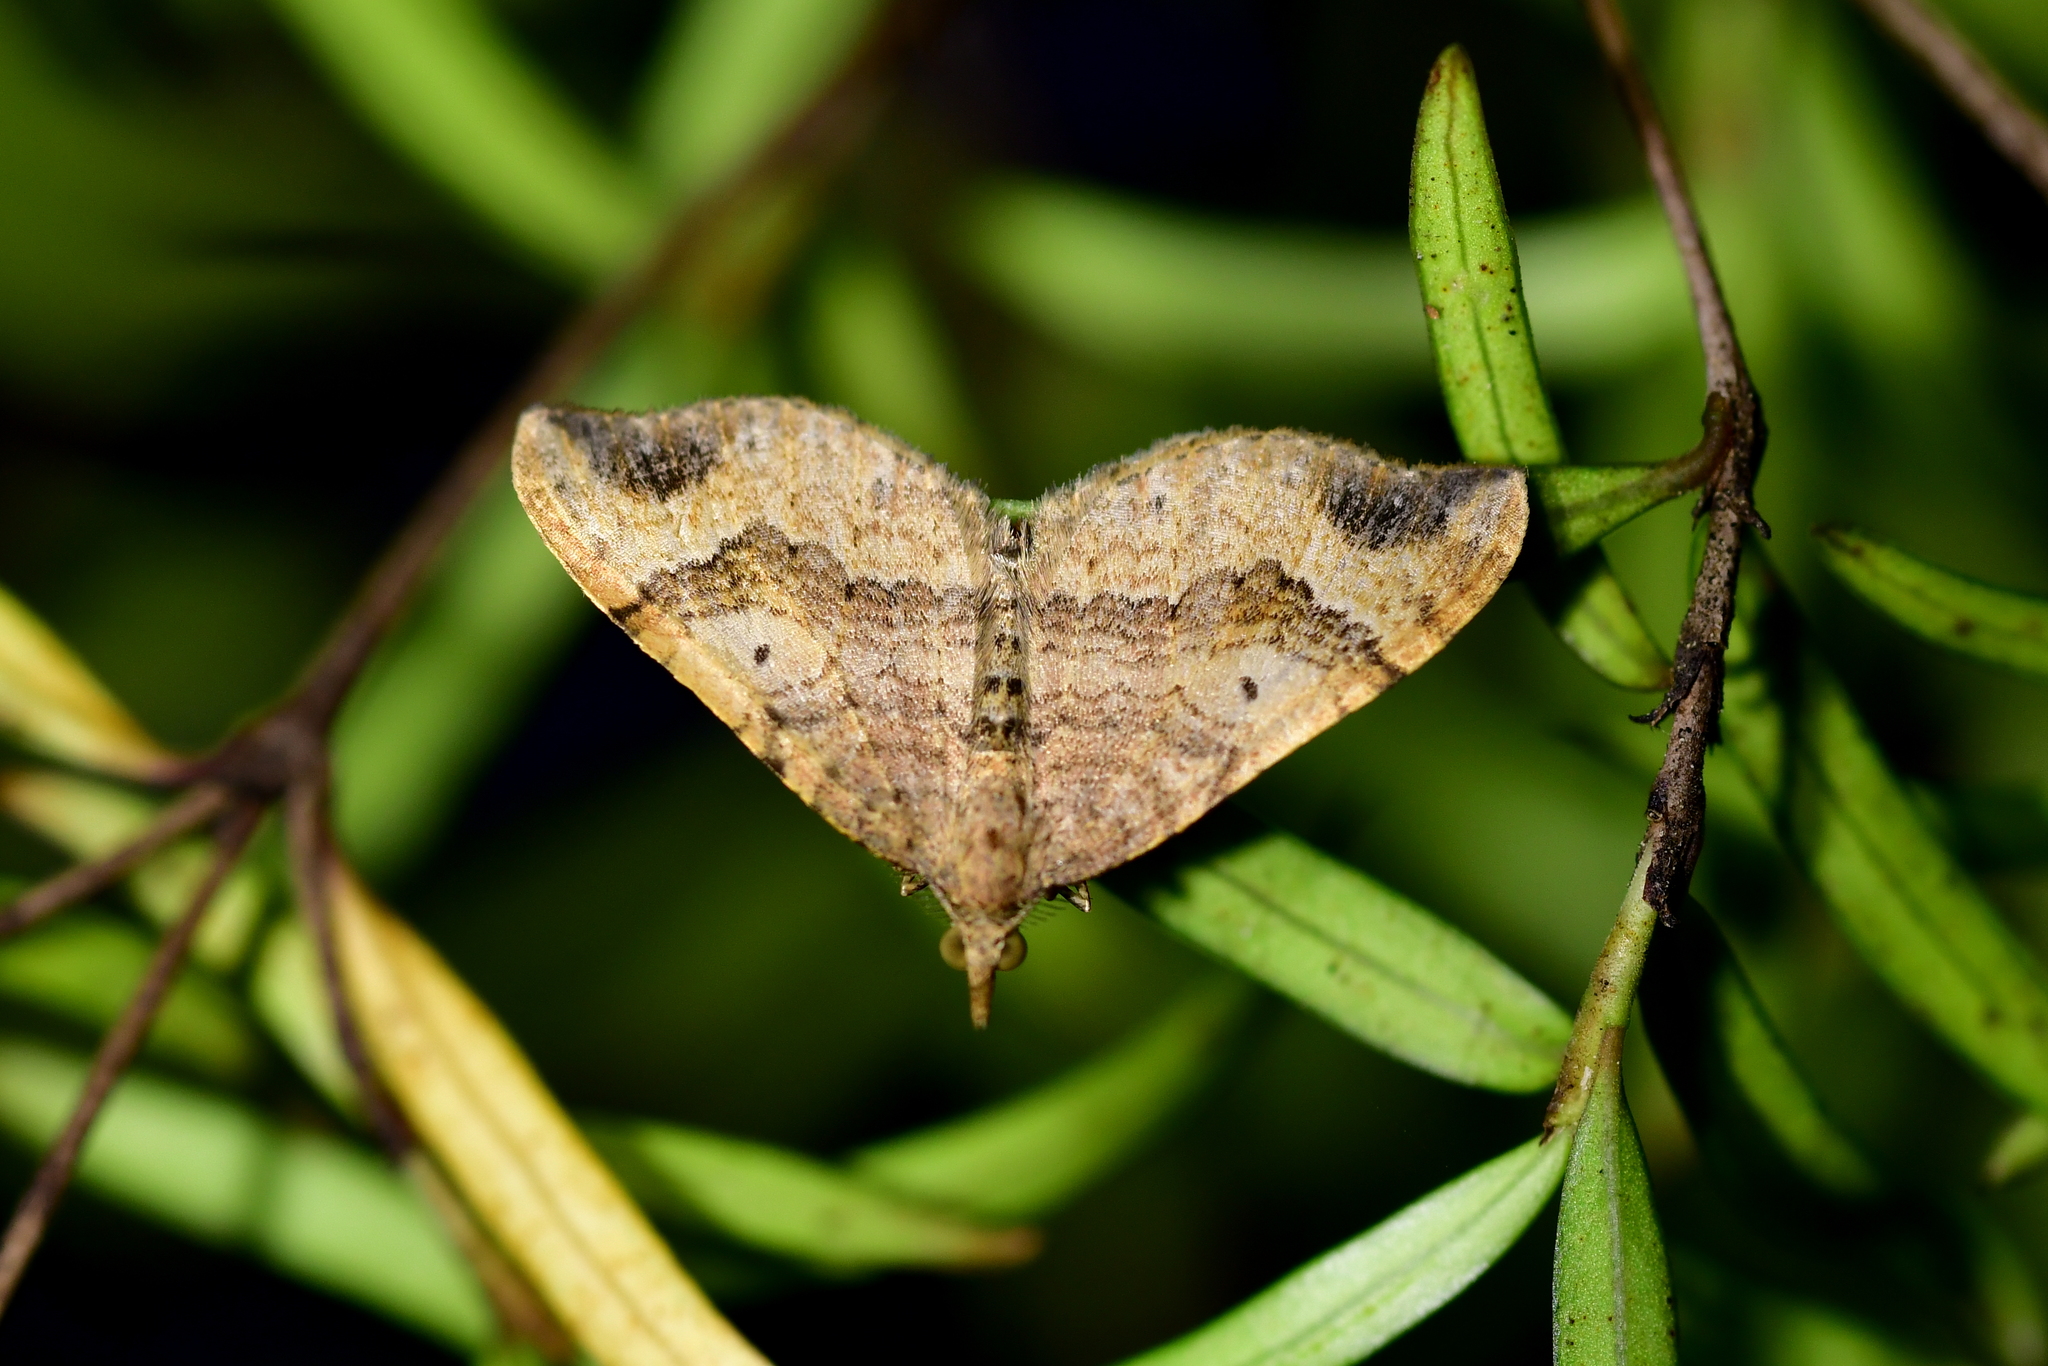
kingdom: Animalia
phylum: Arthropoda
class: Insecta
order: Lepidoptera
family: Geometridae
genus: Homodotis
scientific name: Homodotis megaspilata
